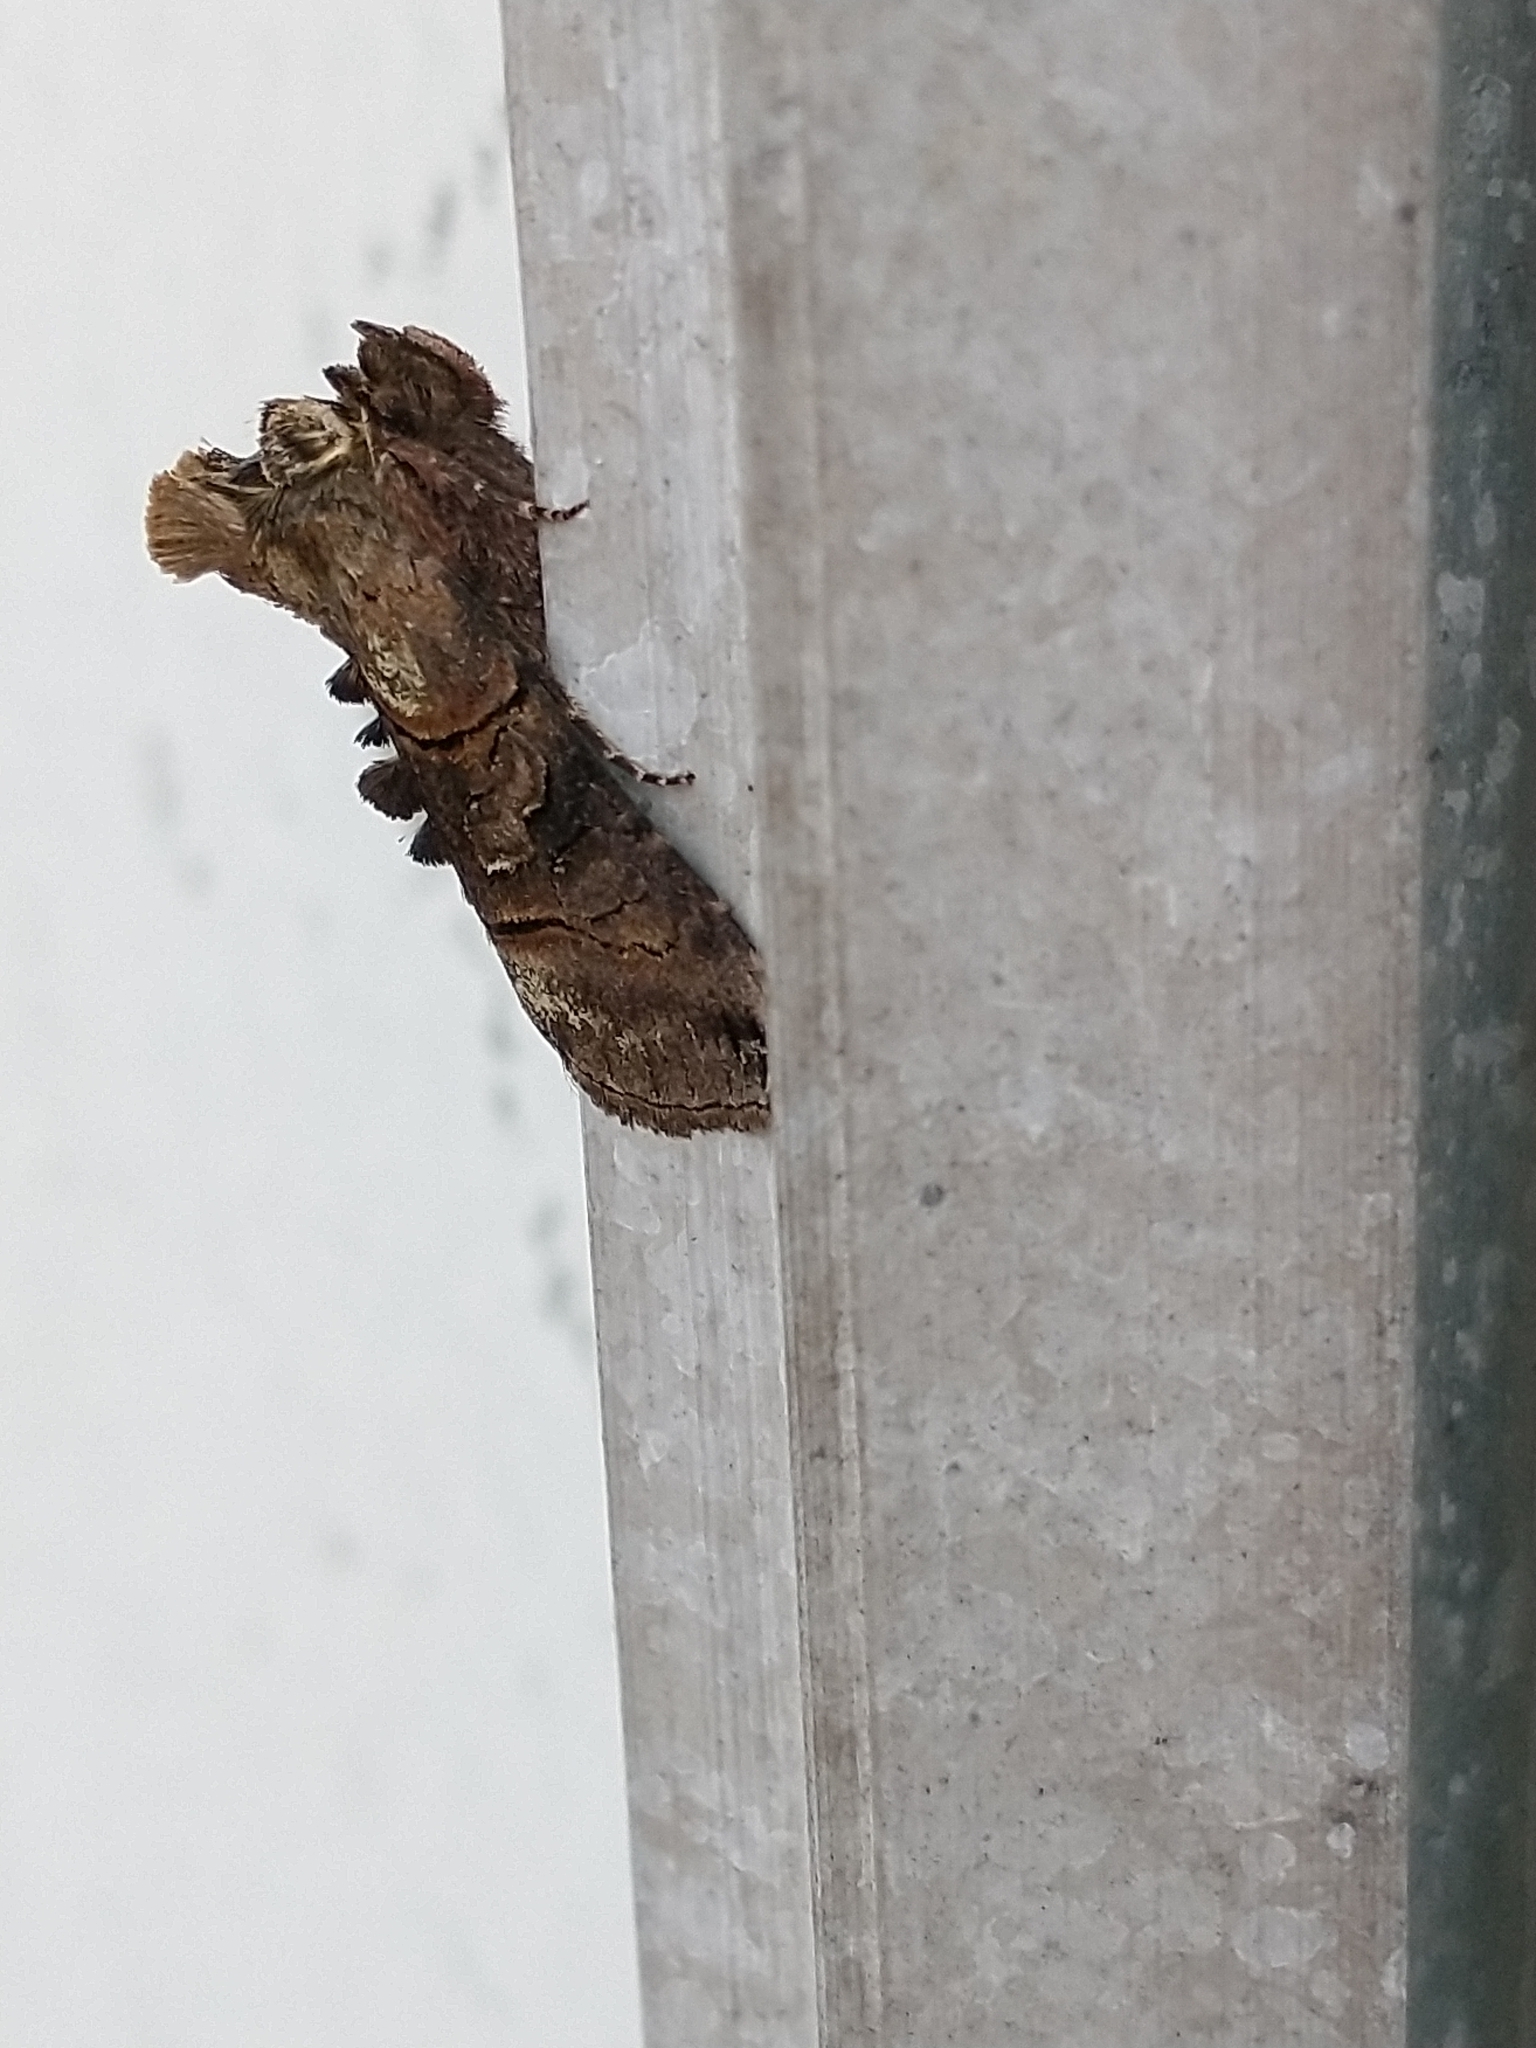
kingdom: Animalia
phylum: Arthropoda
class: Insecta
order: Lepidoptera
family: Noctuidae
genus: Abrostola
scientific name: Abrostola tripartita
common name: Spectacle
